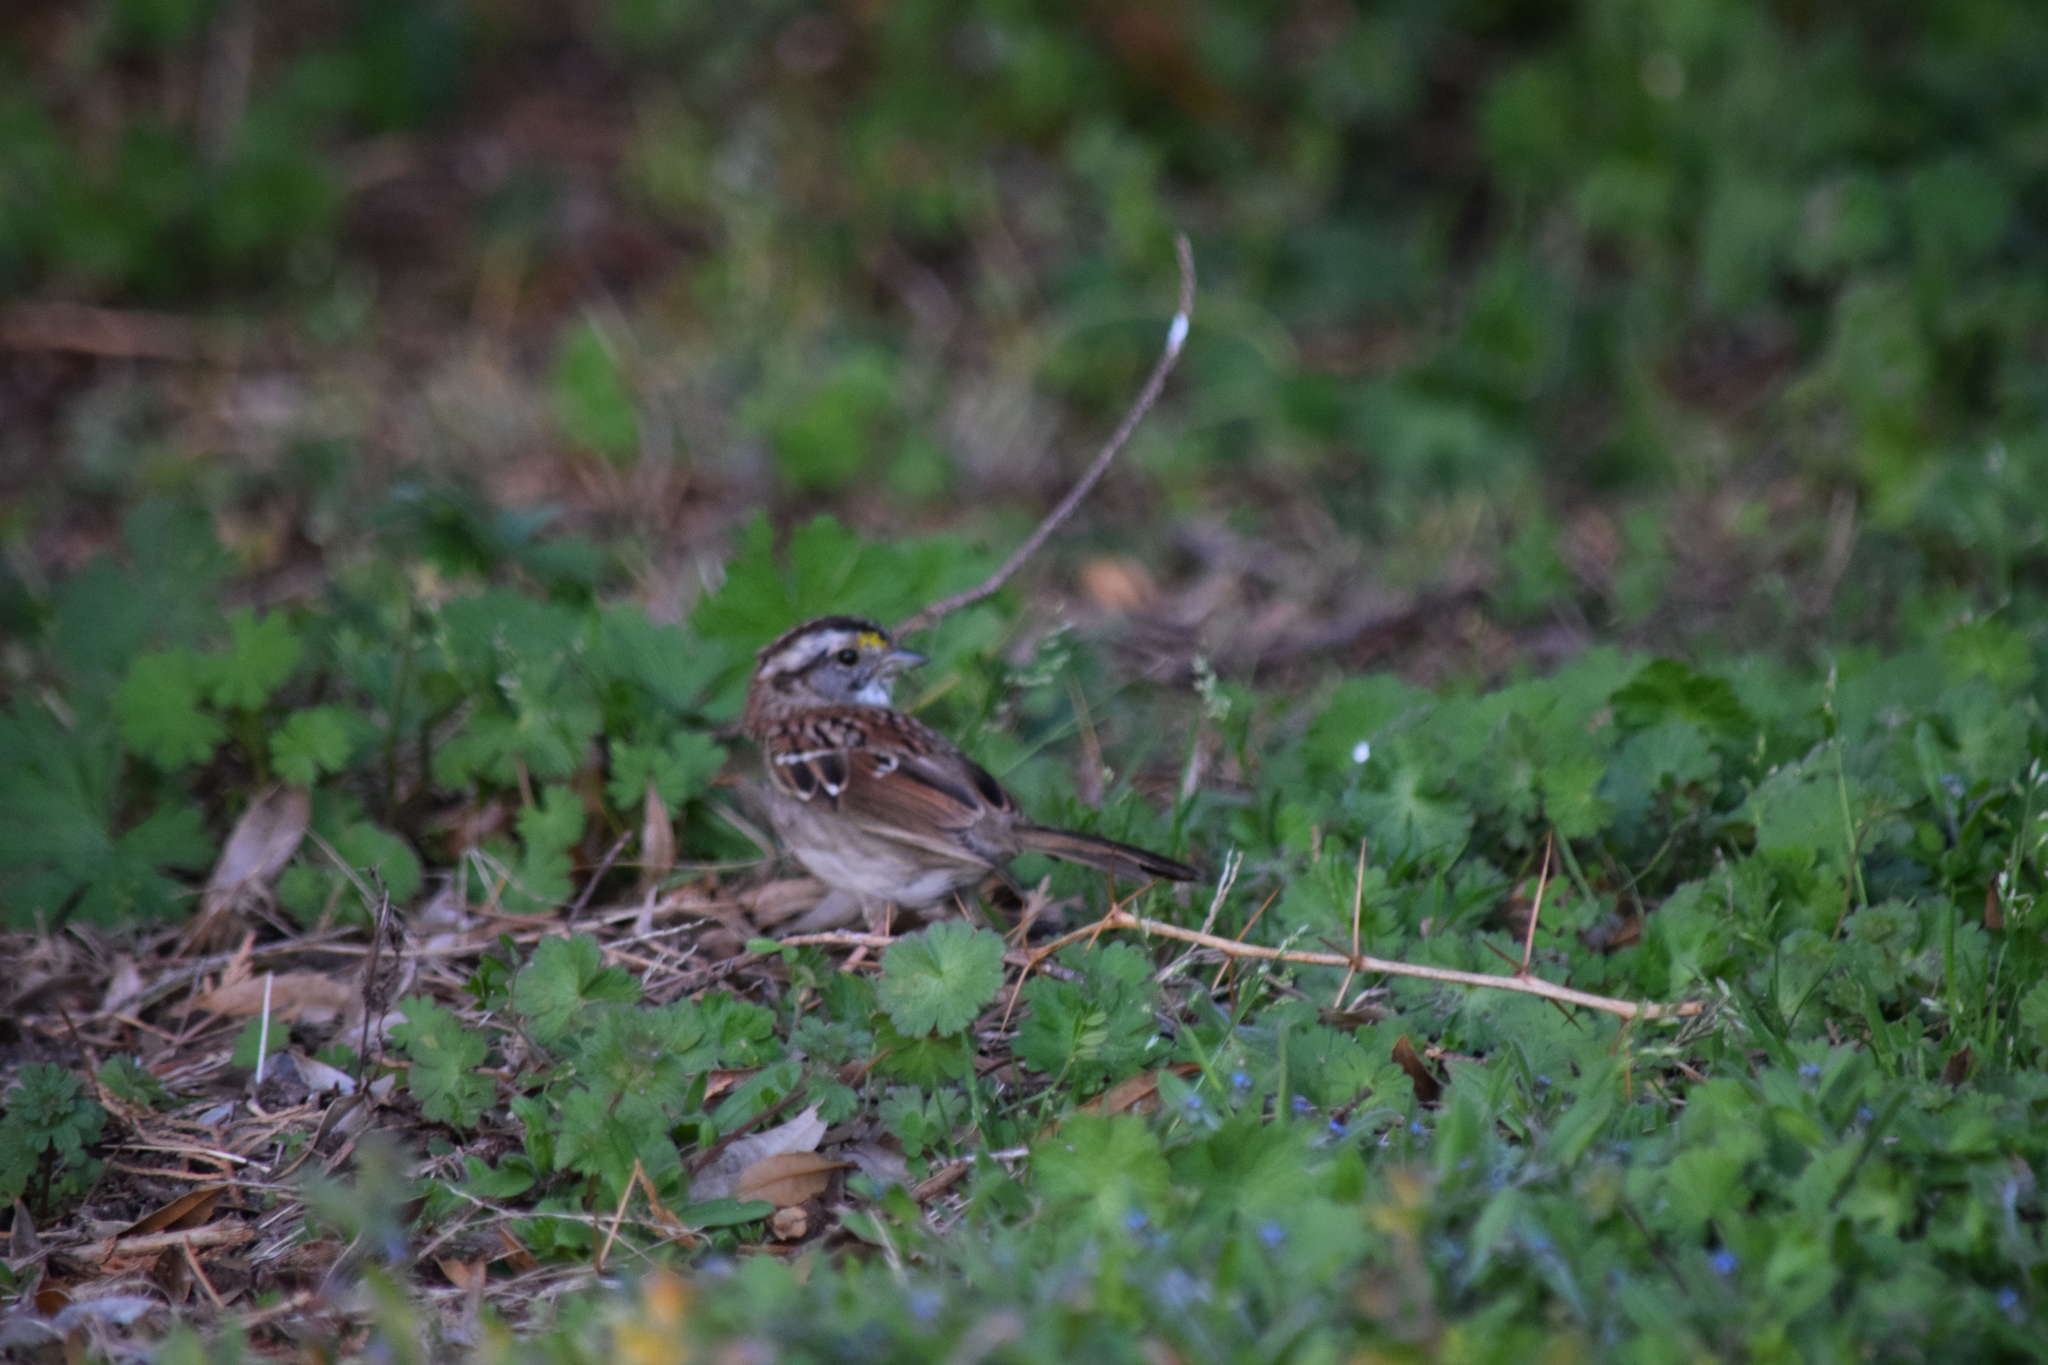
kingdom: Animalia
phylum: Chordata
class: Aves
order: Passeriformes
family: Passerellidae
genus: Zonotrichia
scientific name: Zonotrichia albicollis
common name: White-throated sparrow
